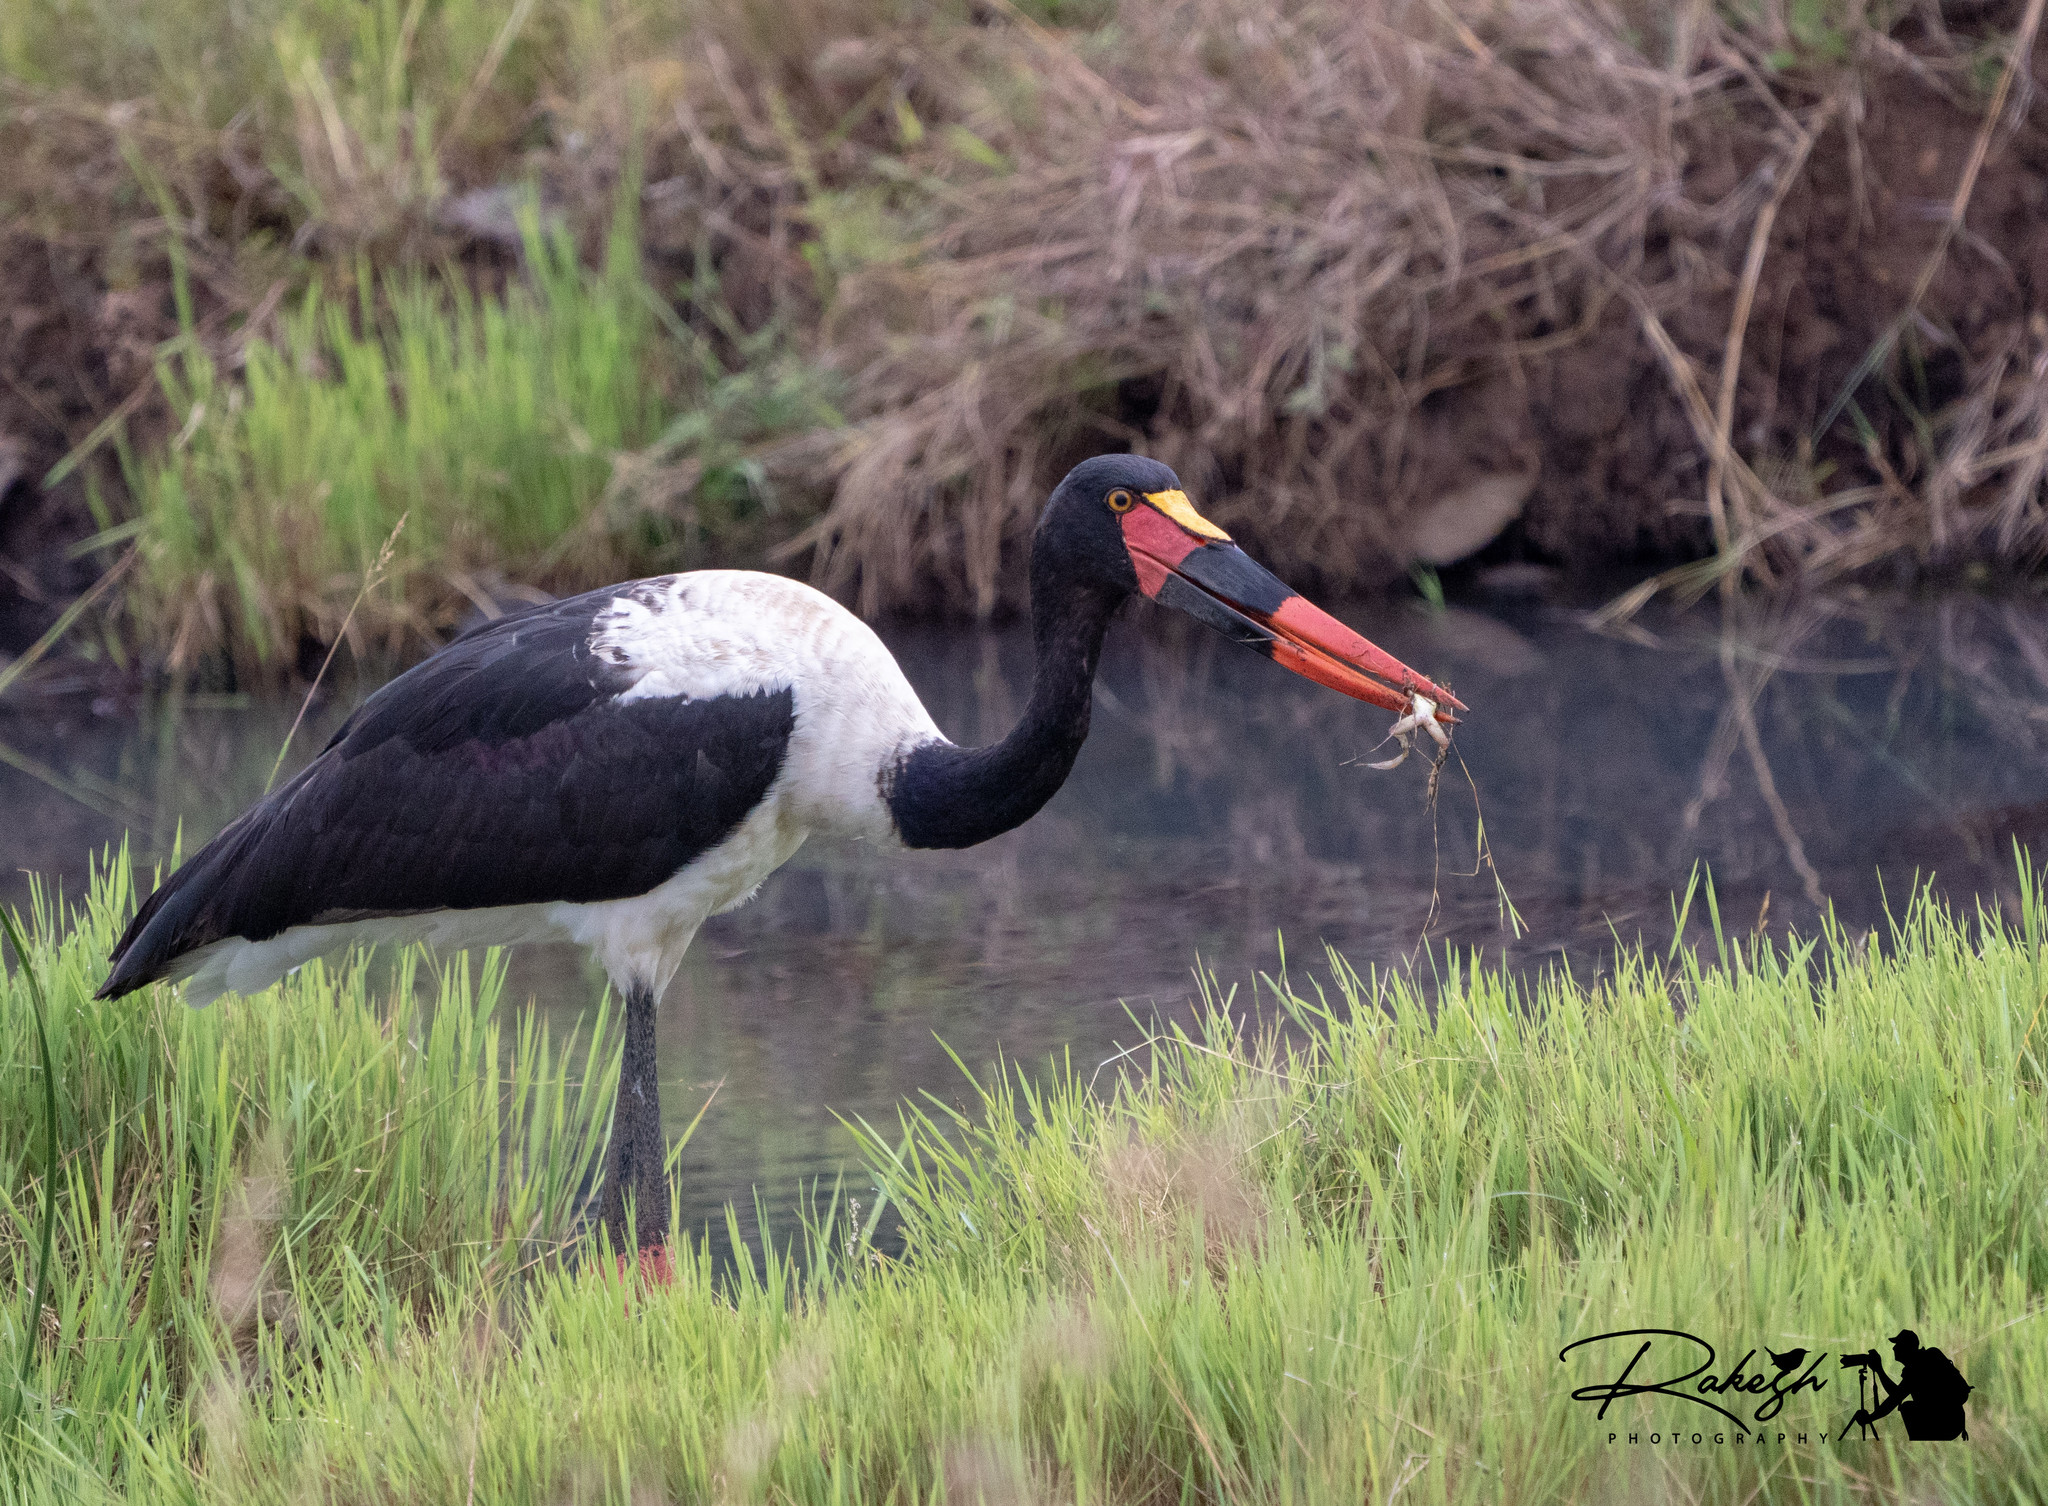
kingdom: Animalia
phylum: Chordata
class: Aves
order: Ciconiiformes
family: Ciconiidae
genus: Ephippiorhynchus
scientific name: Ephippiorhynchus senegalensis
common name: Saddle-billed stork
